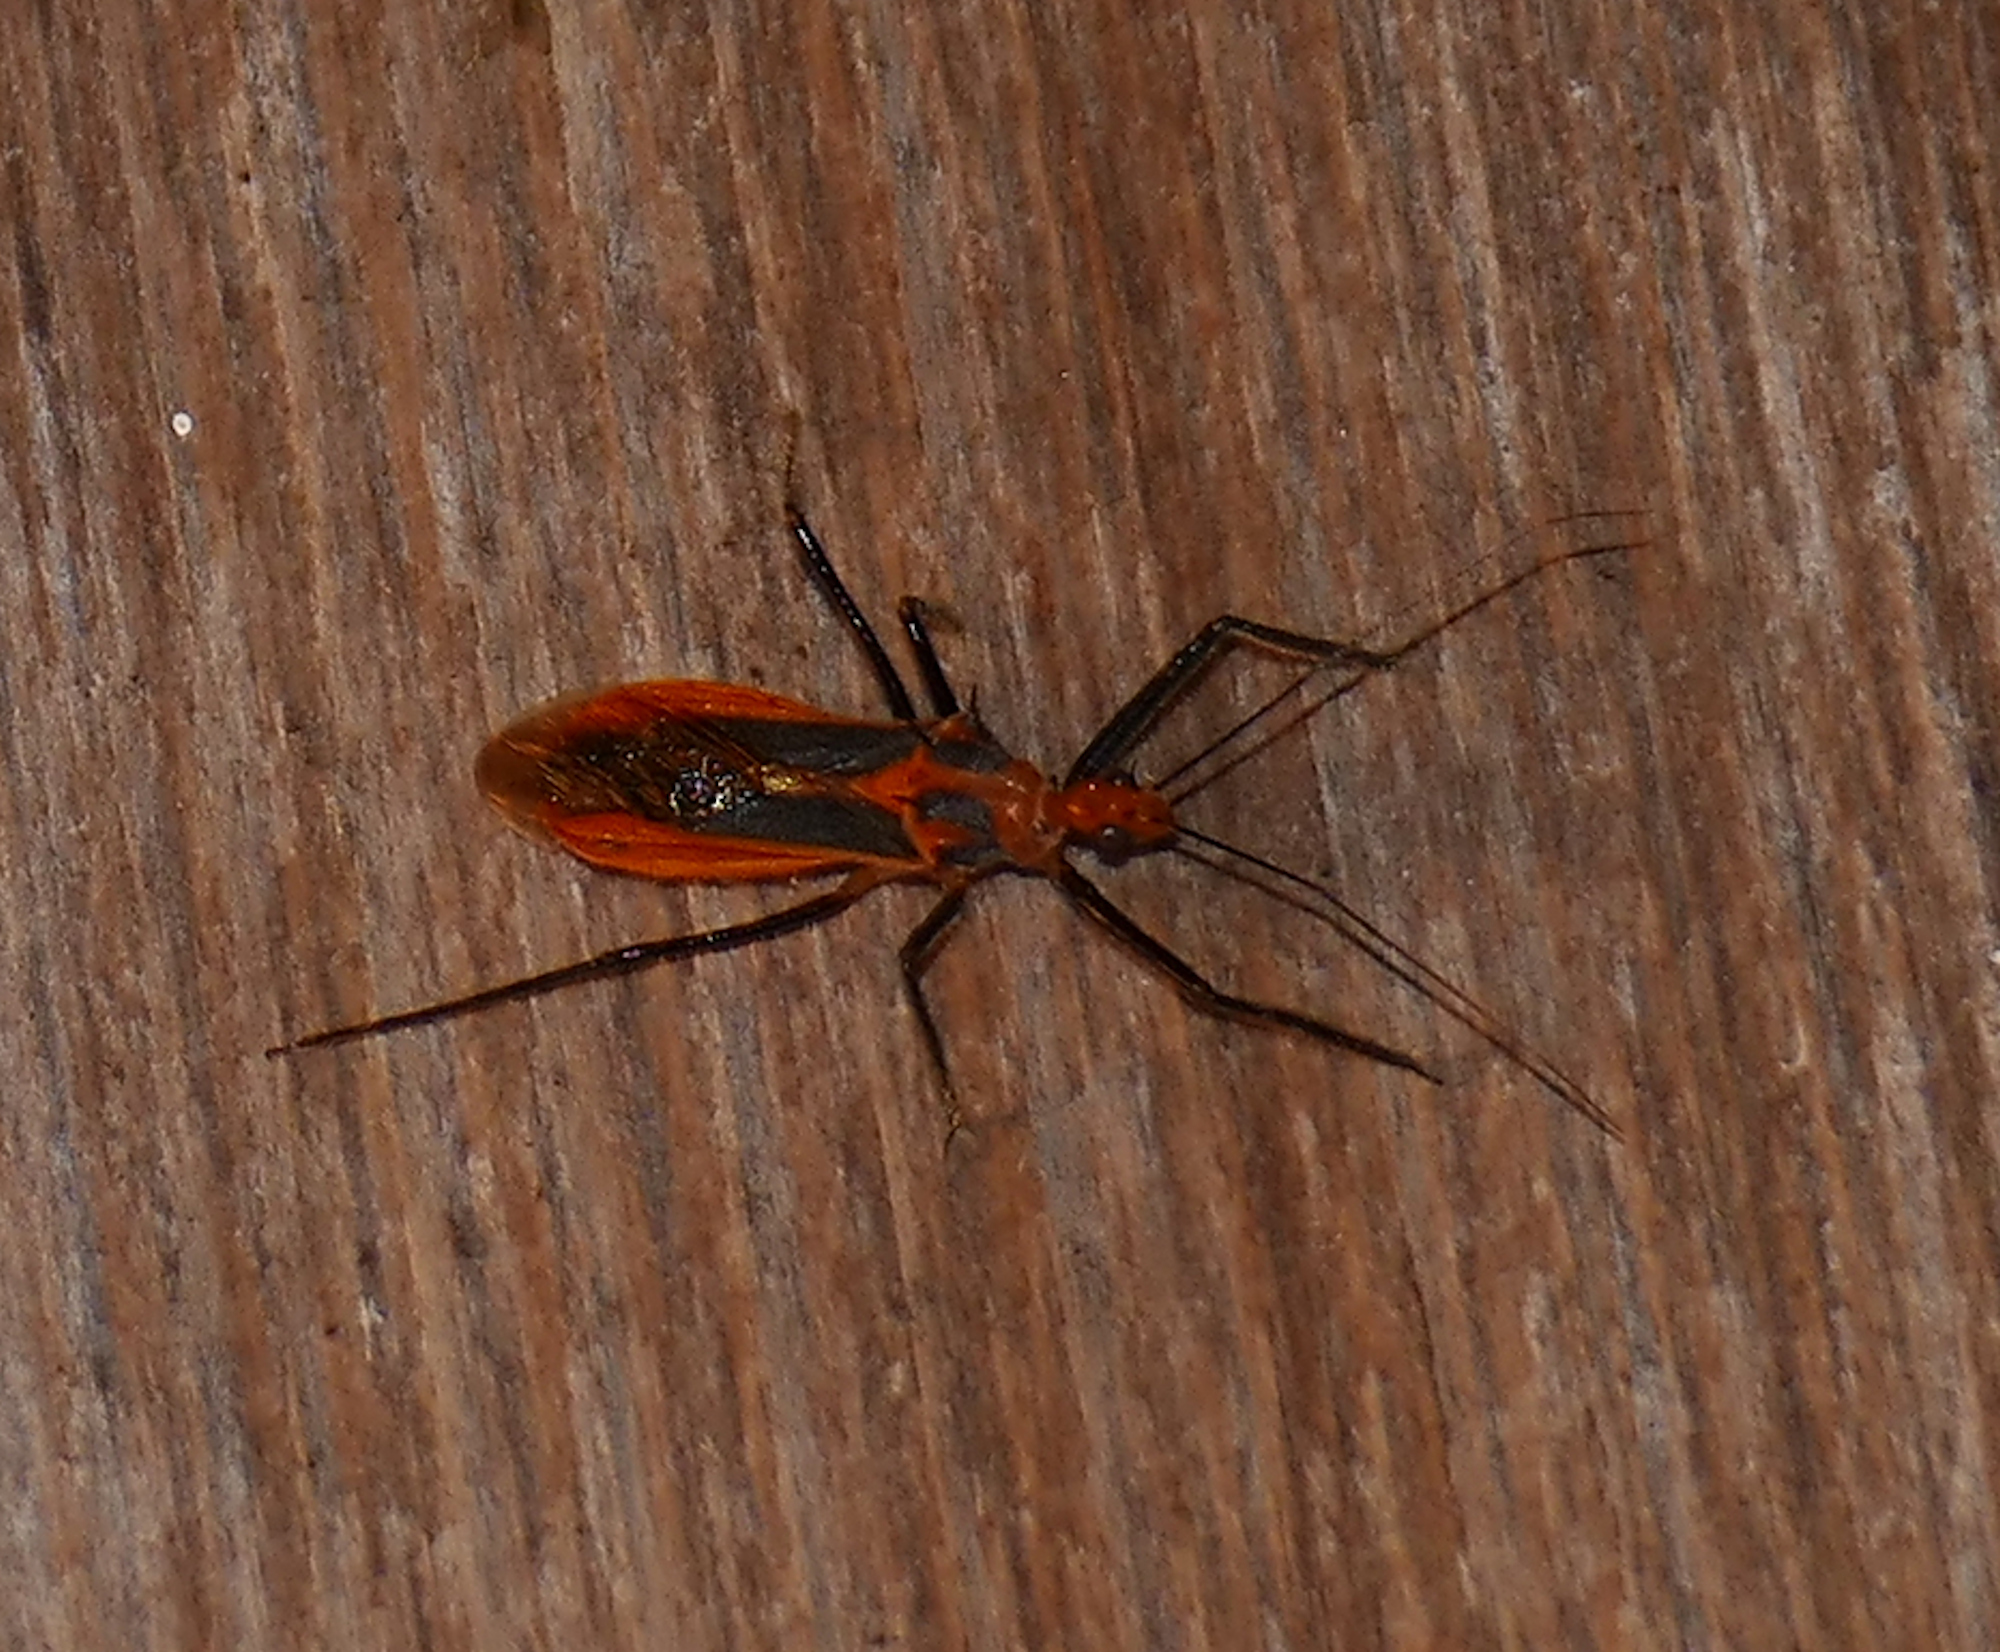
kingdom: Animalia
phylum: Arthropoda
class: Insecta
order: Hemiptera
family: Reduviidae
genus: Repipta
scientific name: Repipta taurus
